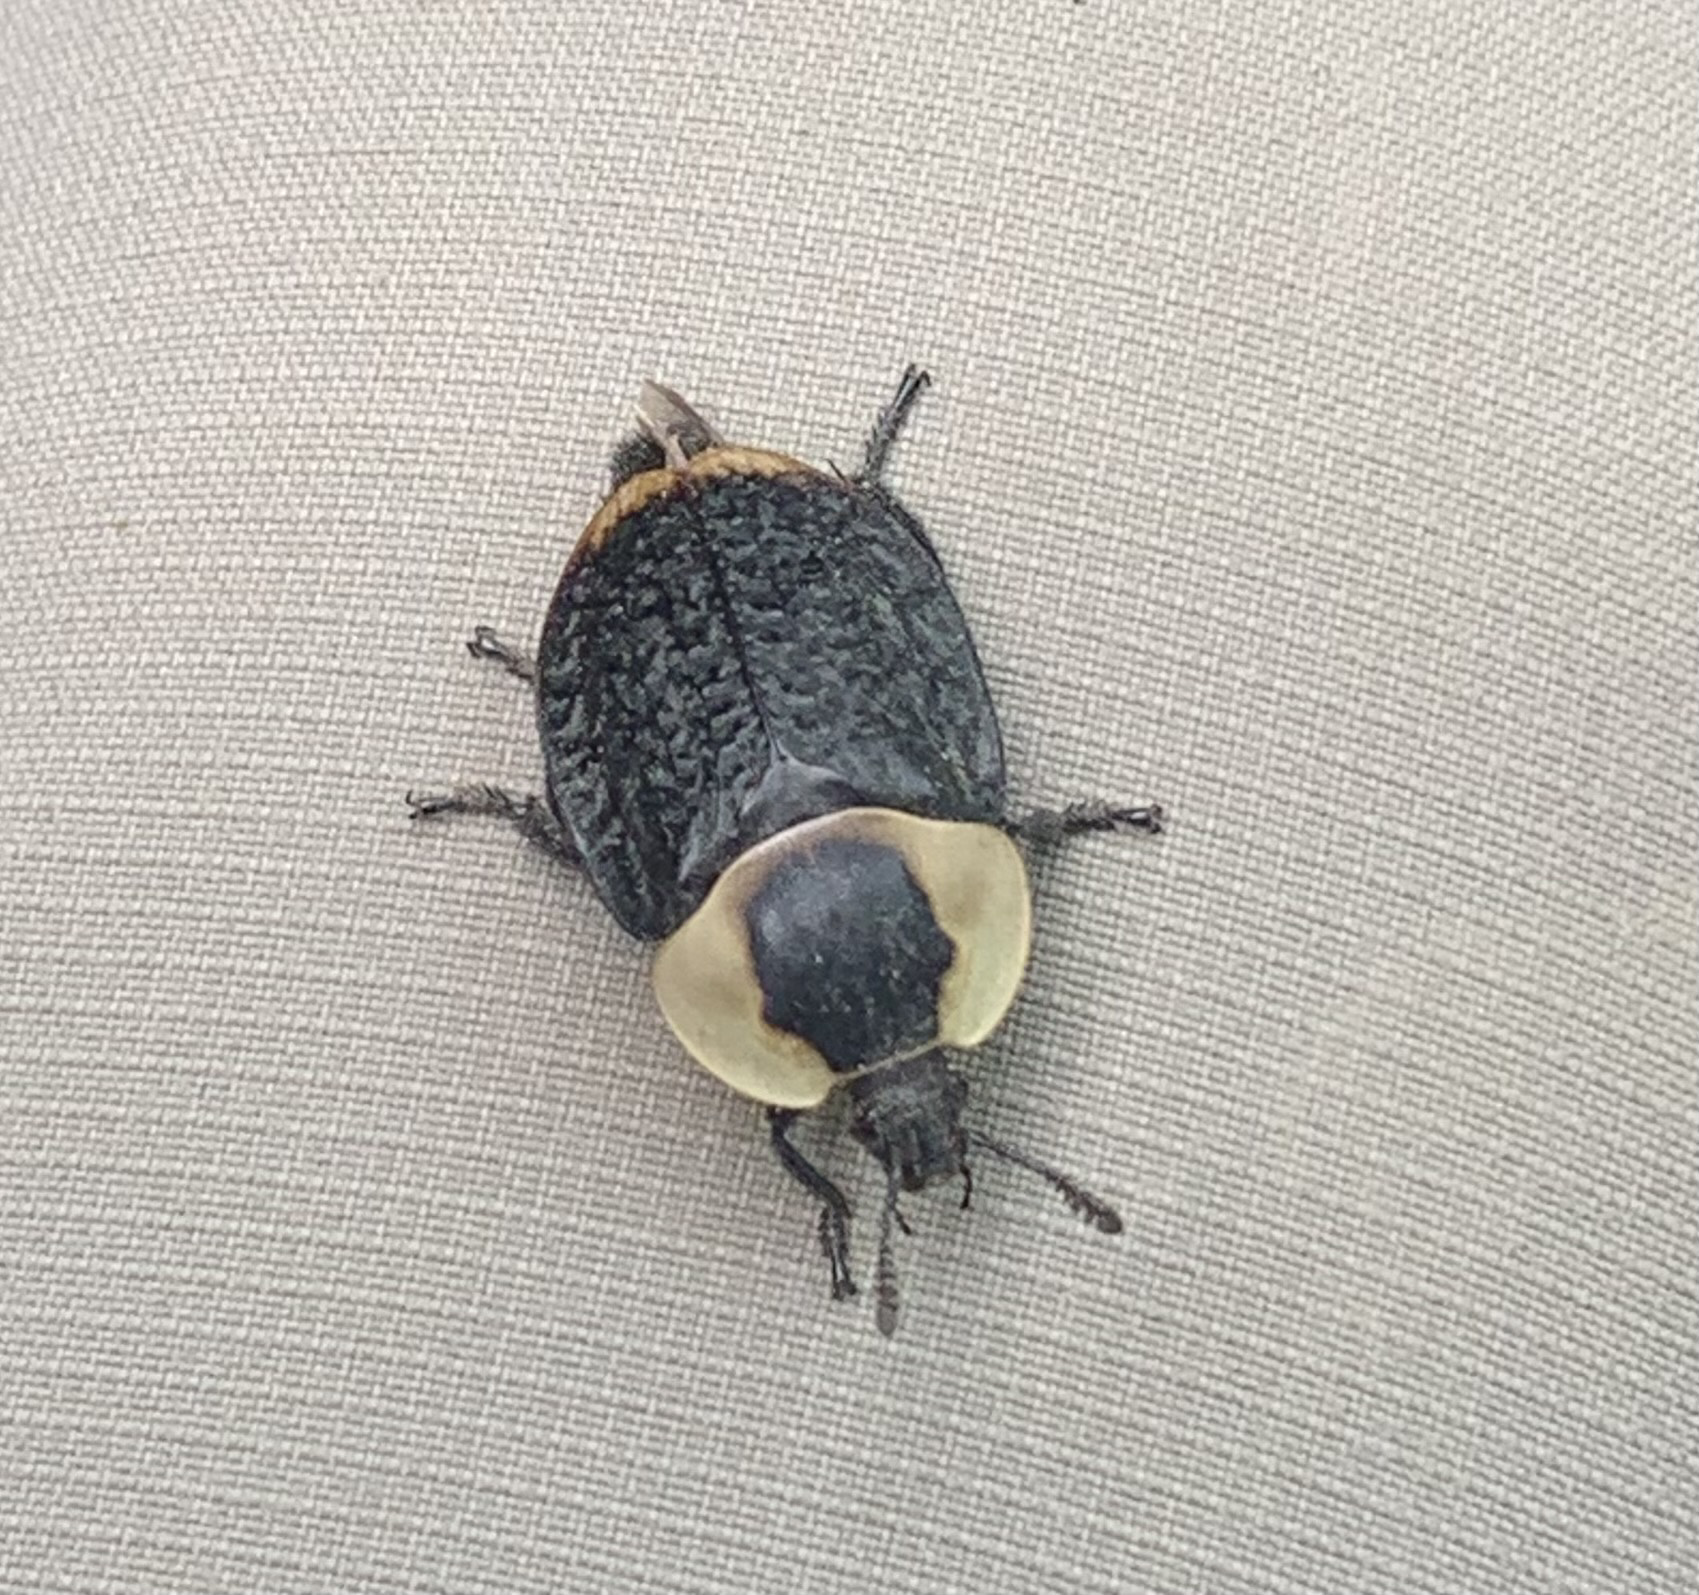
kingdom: Animalia
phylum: Arthropoda
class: Insecta
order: Coleoptera
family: Staphylinidae
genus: Necrophila
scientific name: Necrophila americana
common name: American carrion beetle
